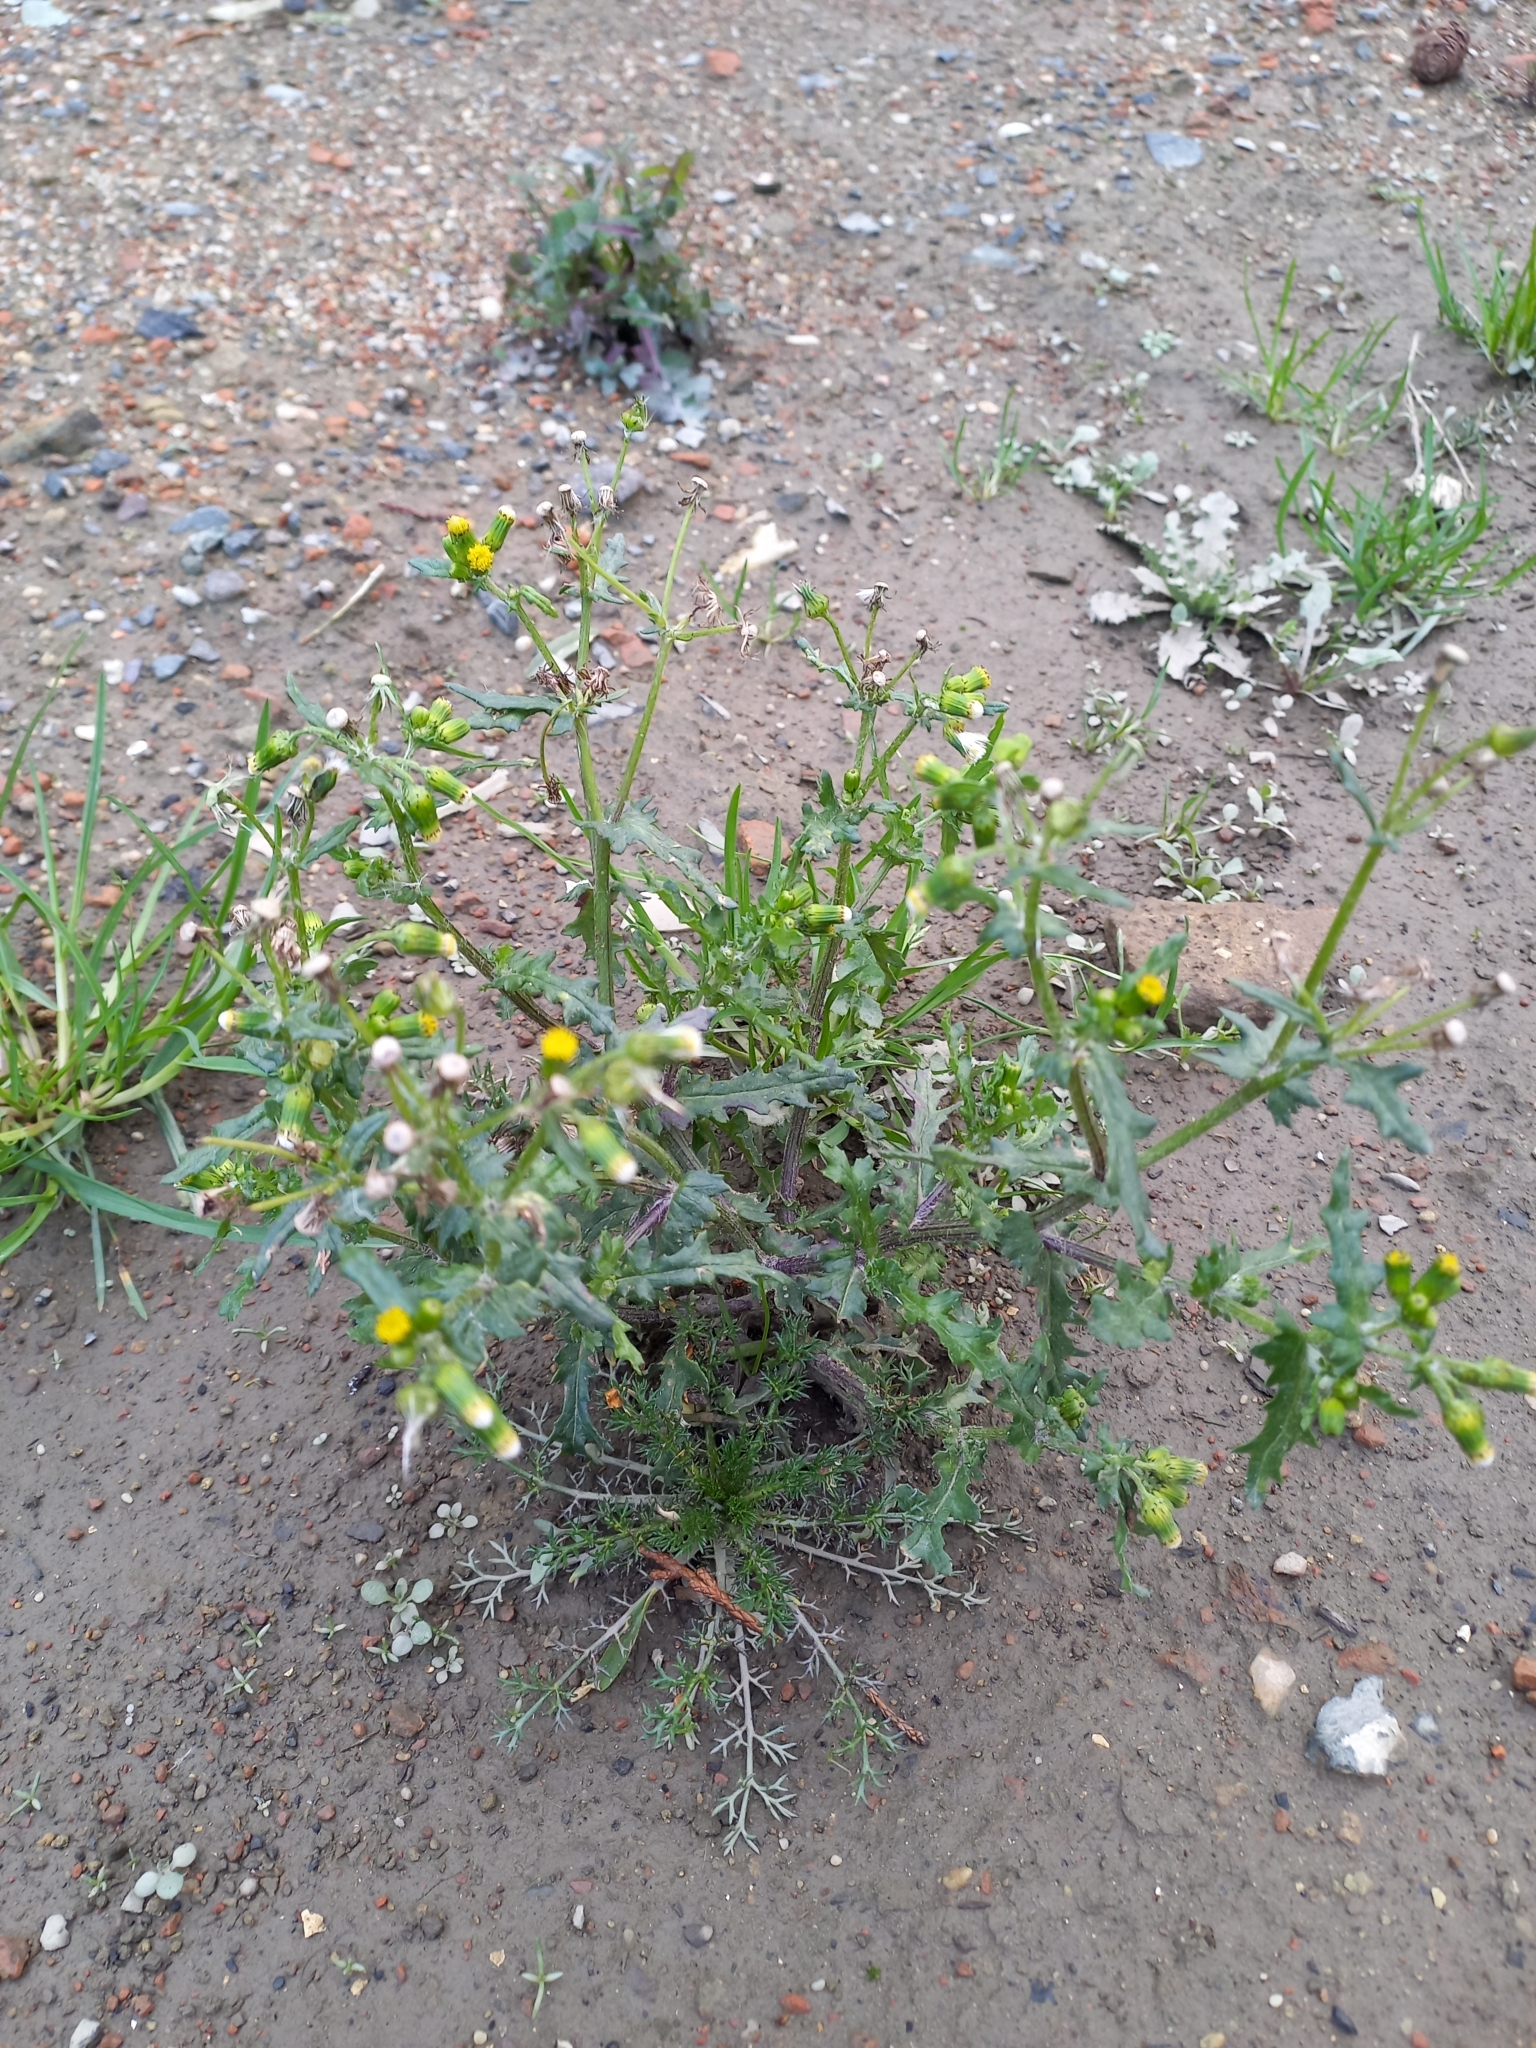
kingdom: Plantae
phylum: Tracheophyta
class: Magnoliopsida
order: Asterales
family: Asteraceae
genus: Senecio
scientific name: Senecio vulgaris
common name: Old-man-in-the-spring
